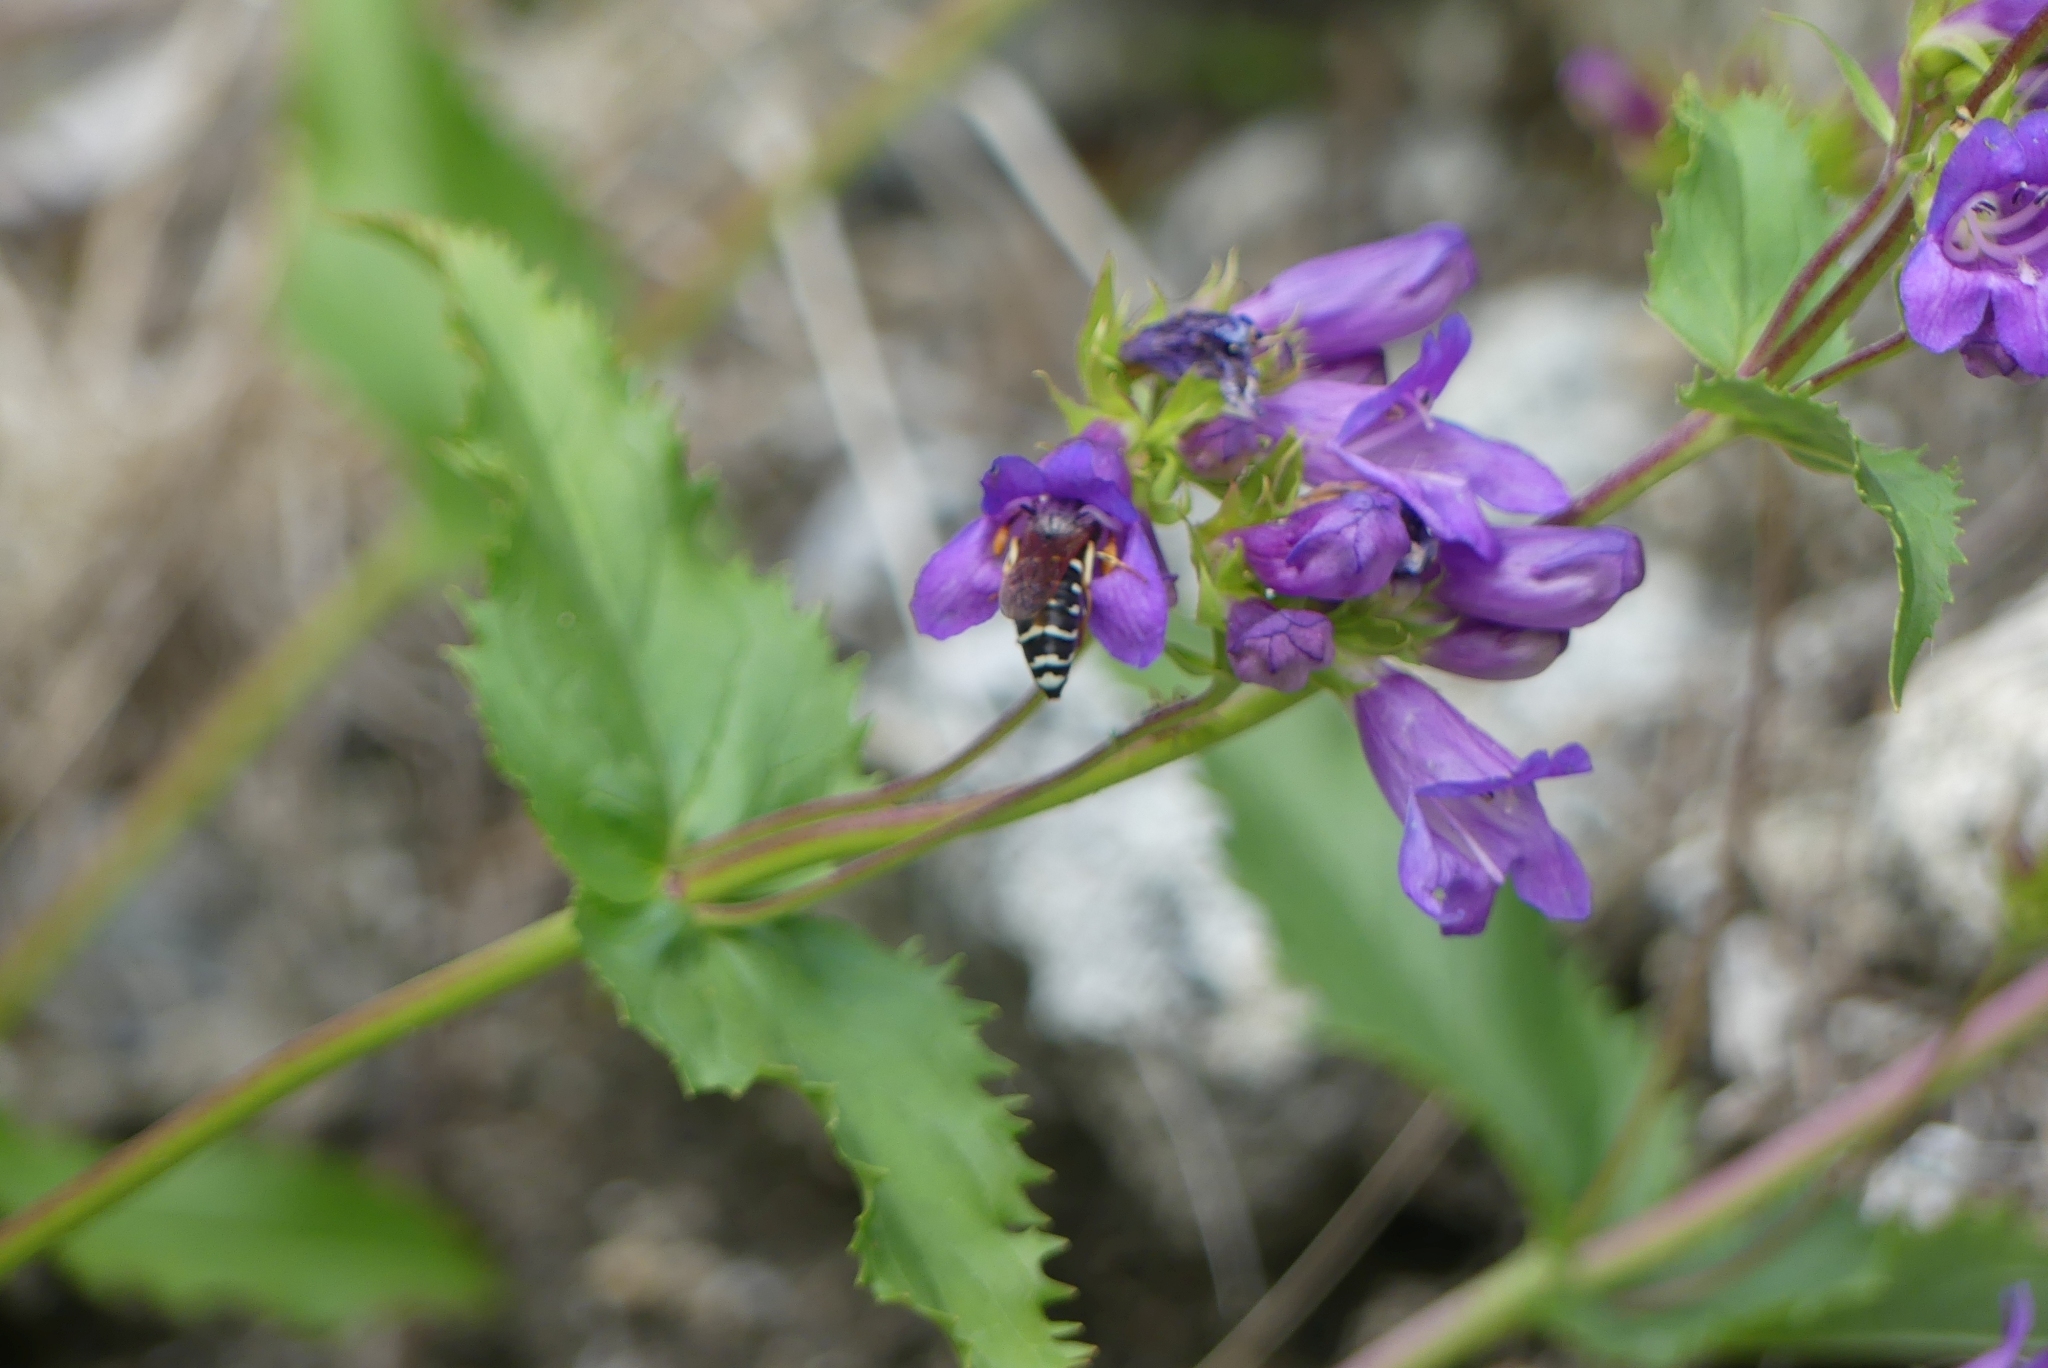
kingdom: Animalia
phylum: Arthropoda
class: Insecta
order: Hymenoptera
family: Masaridae
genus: Pseudomasaris
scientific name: Pseudomasaris vespoides
